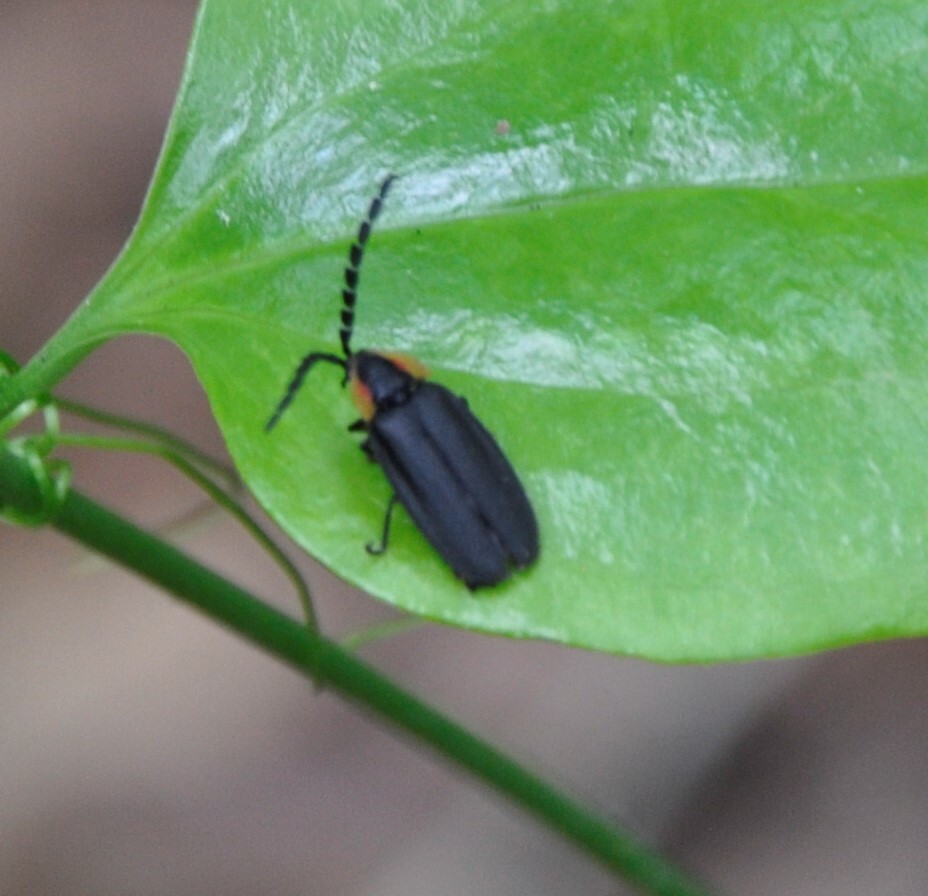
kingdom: Animalia
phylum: Arthropoda
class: Insecta
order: Coleoptera
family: Lampyridae
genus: Lucidota
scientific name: Lucidota atra
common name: Black firefly
